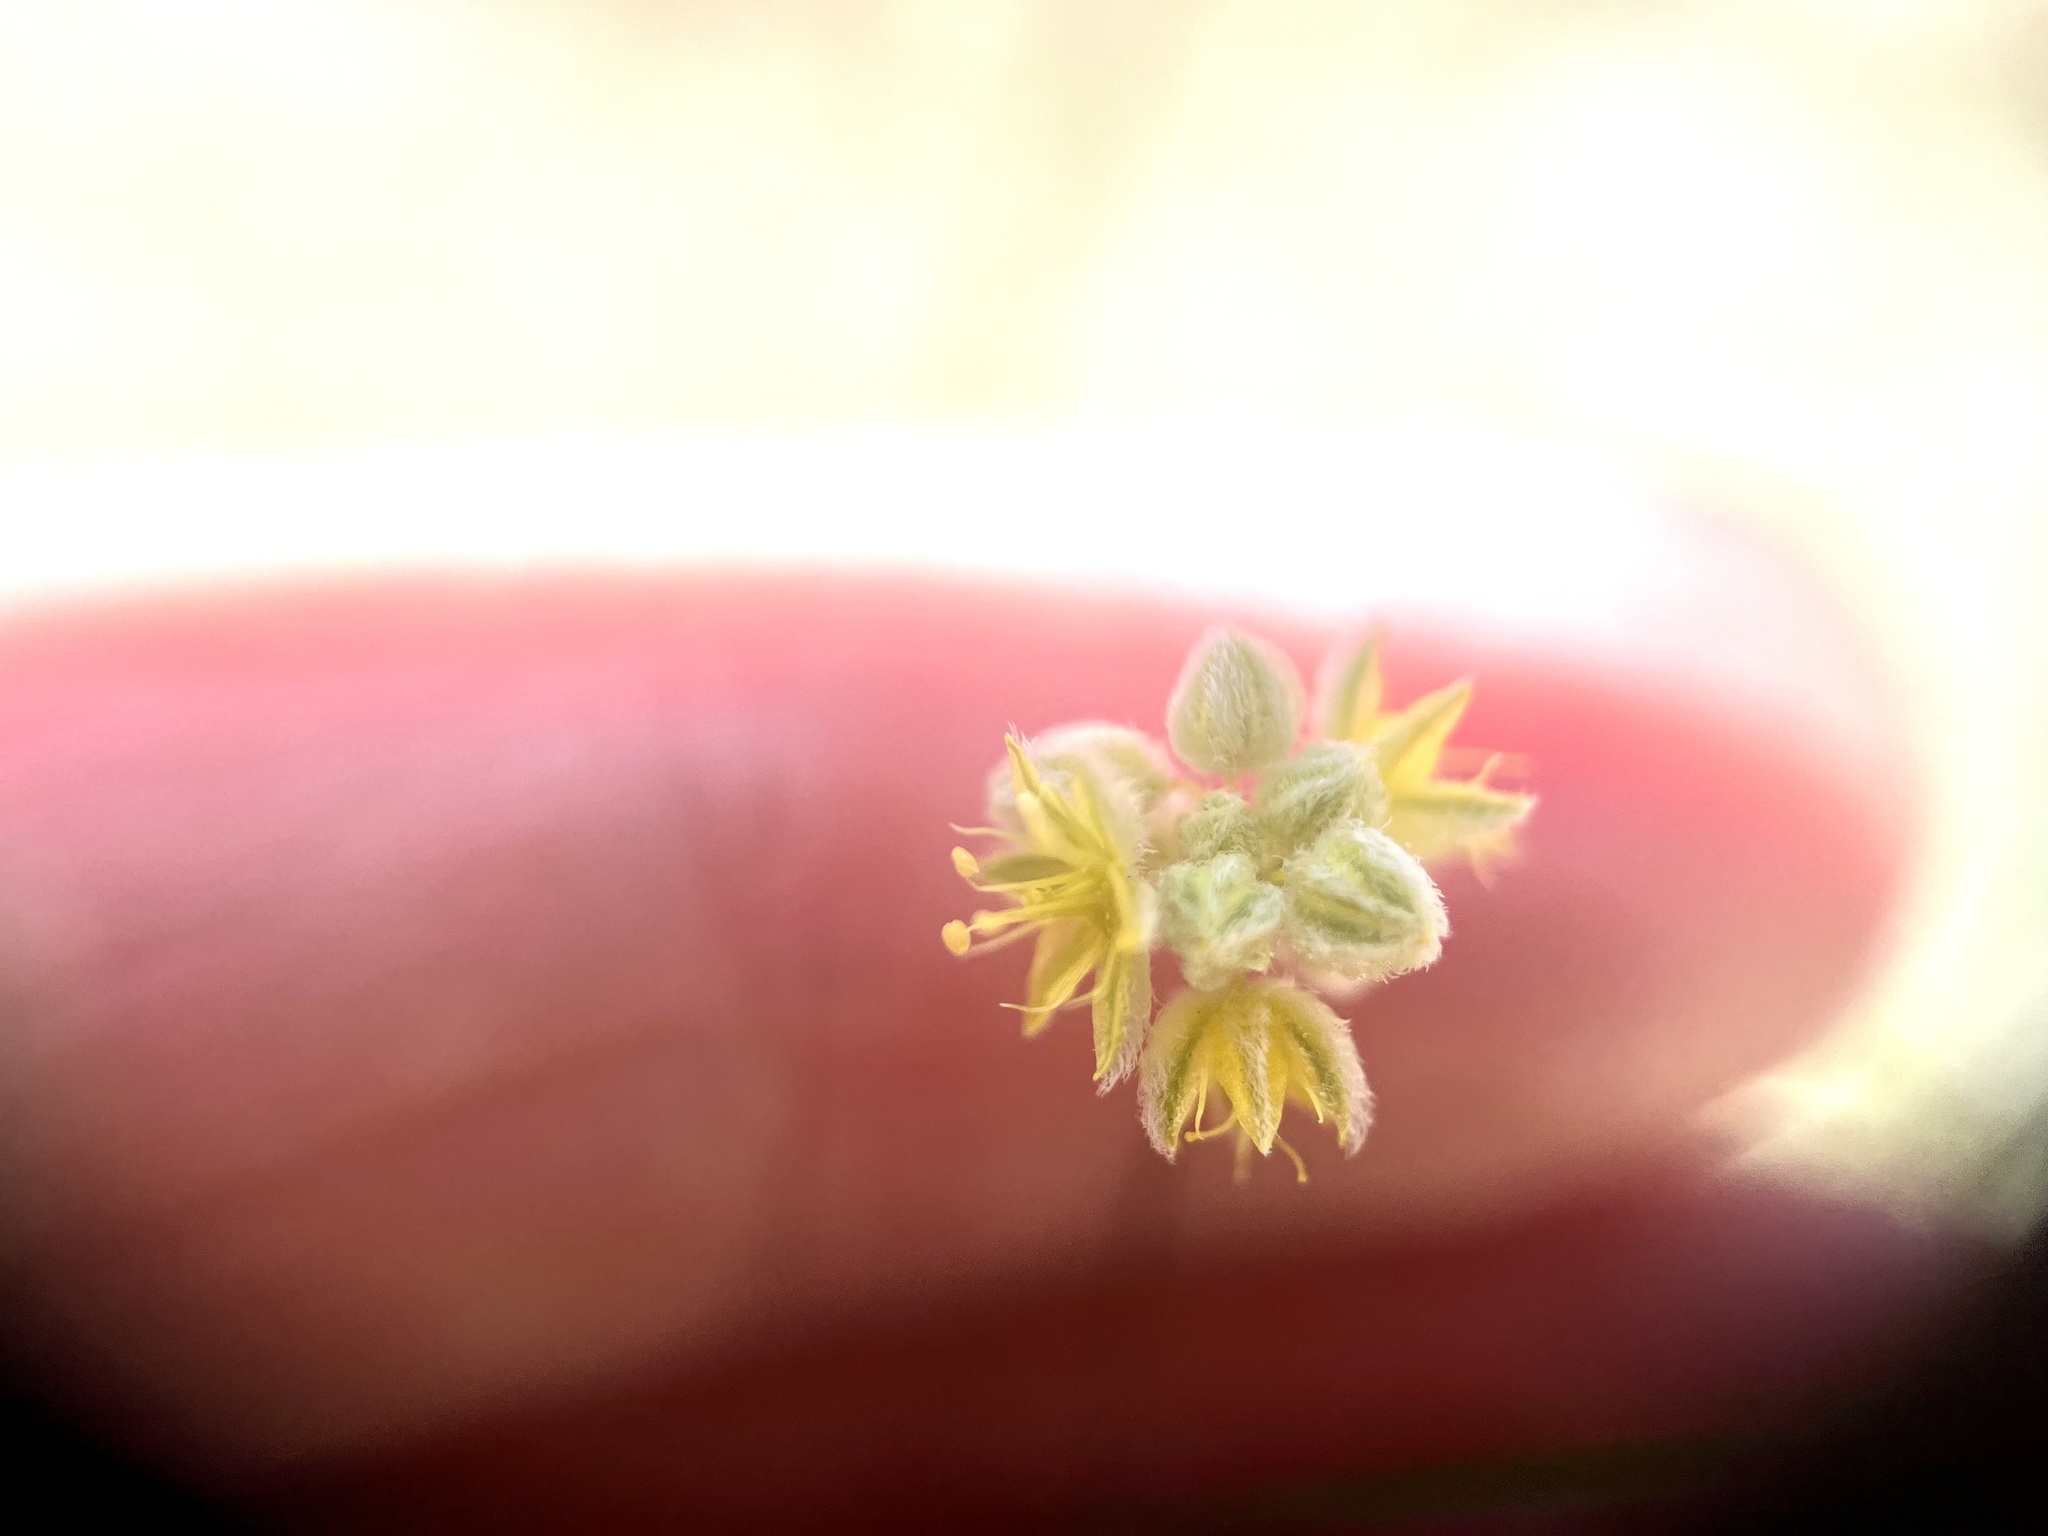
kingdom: Plantae
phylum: Tracheophyta
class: Magnoliopsida
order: Caryophyllales
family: Polygonaceae
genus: Eriogonum
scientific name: Eriogonum inflatum
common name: Desert trumpet
